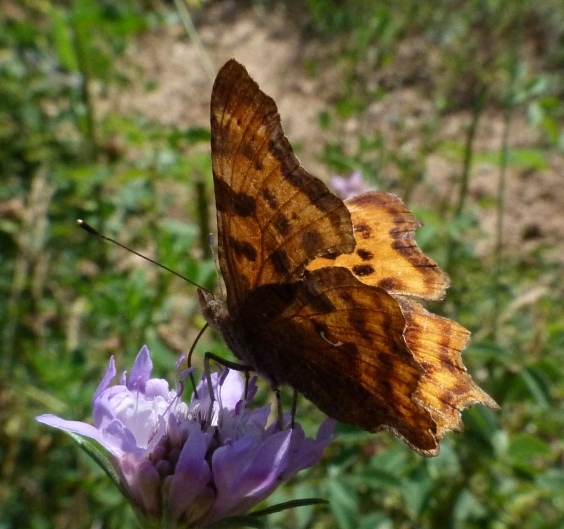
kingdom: Animalia
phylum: Arthropoda
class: Insecta
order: Lepidoptera
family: Nymphalidae
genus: Polygonia
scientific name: Polygonia c-album
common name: Comma
